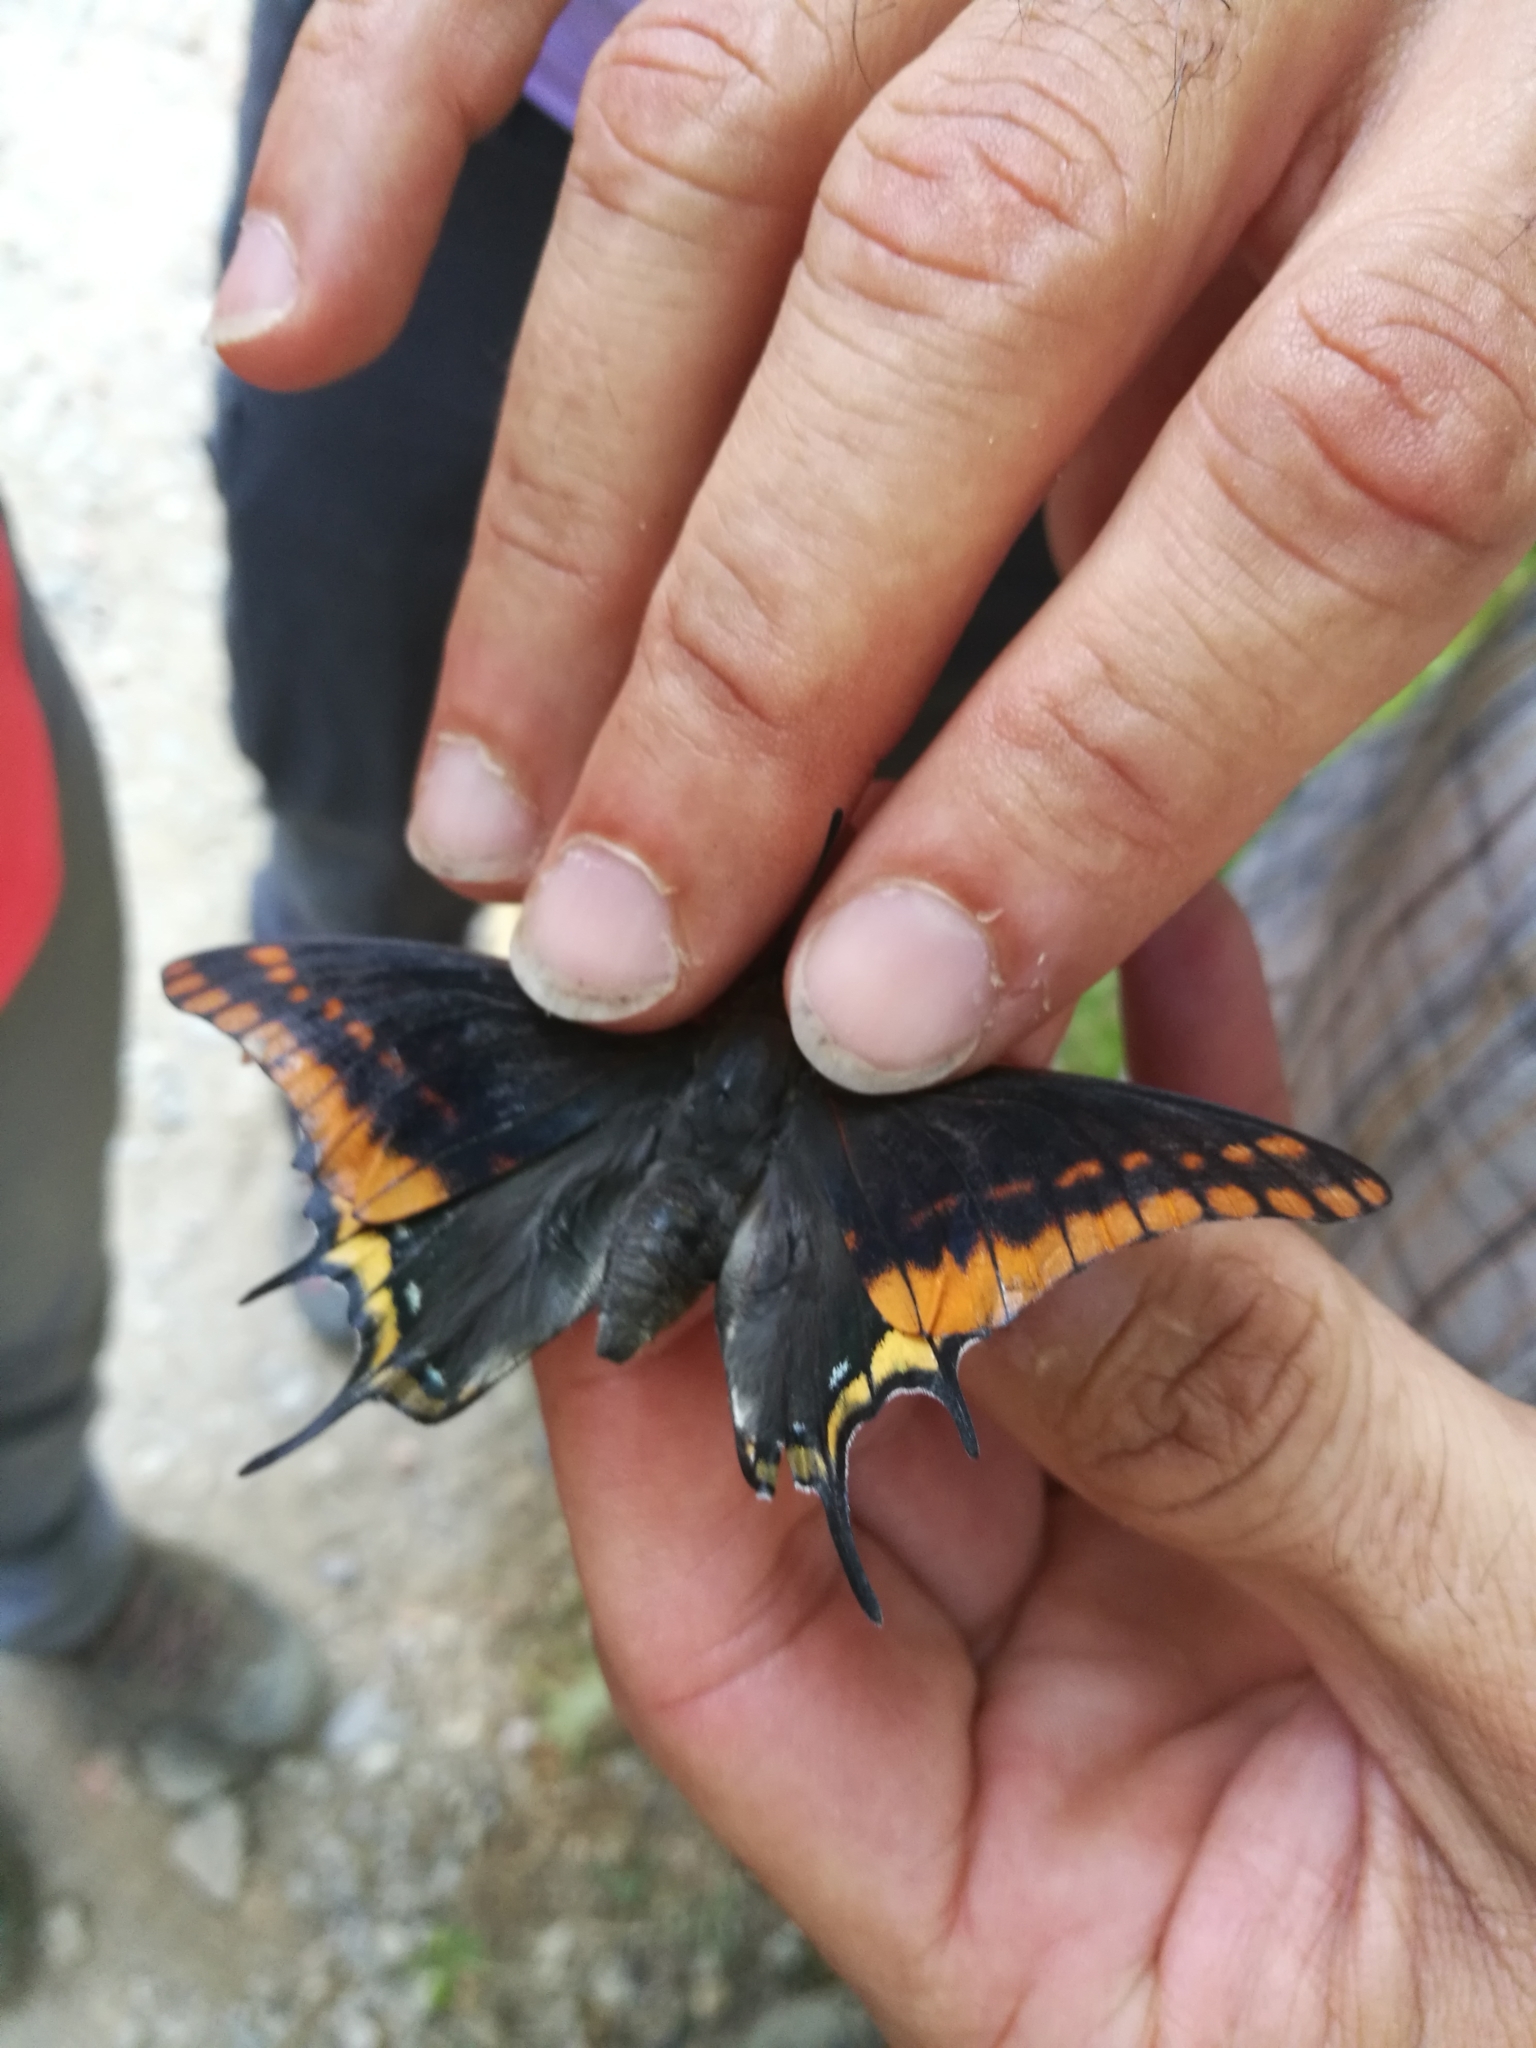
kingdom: Animalia
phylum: Arthropoda
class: Insecta
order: Lepidoptera
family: Nymphalidae
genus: Charaxes
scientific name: Charaxes jasius
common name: Two tailed pasha
